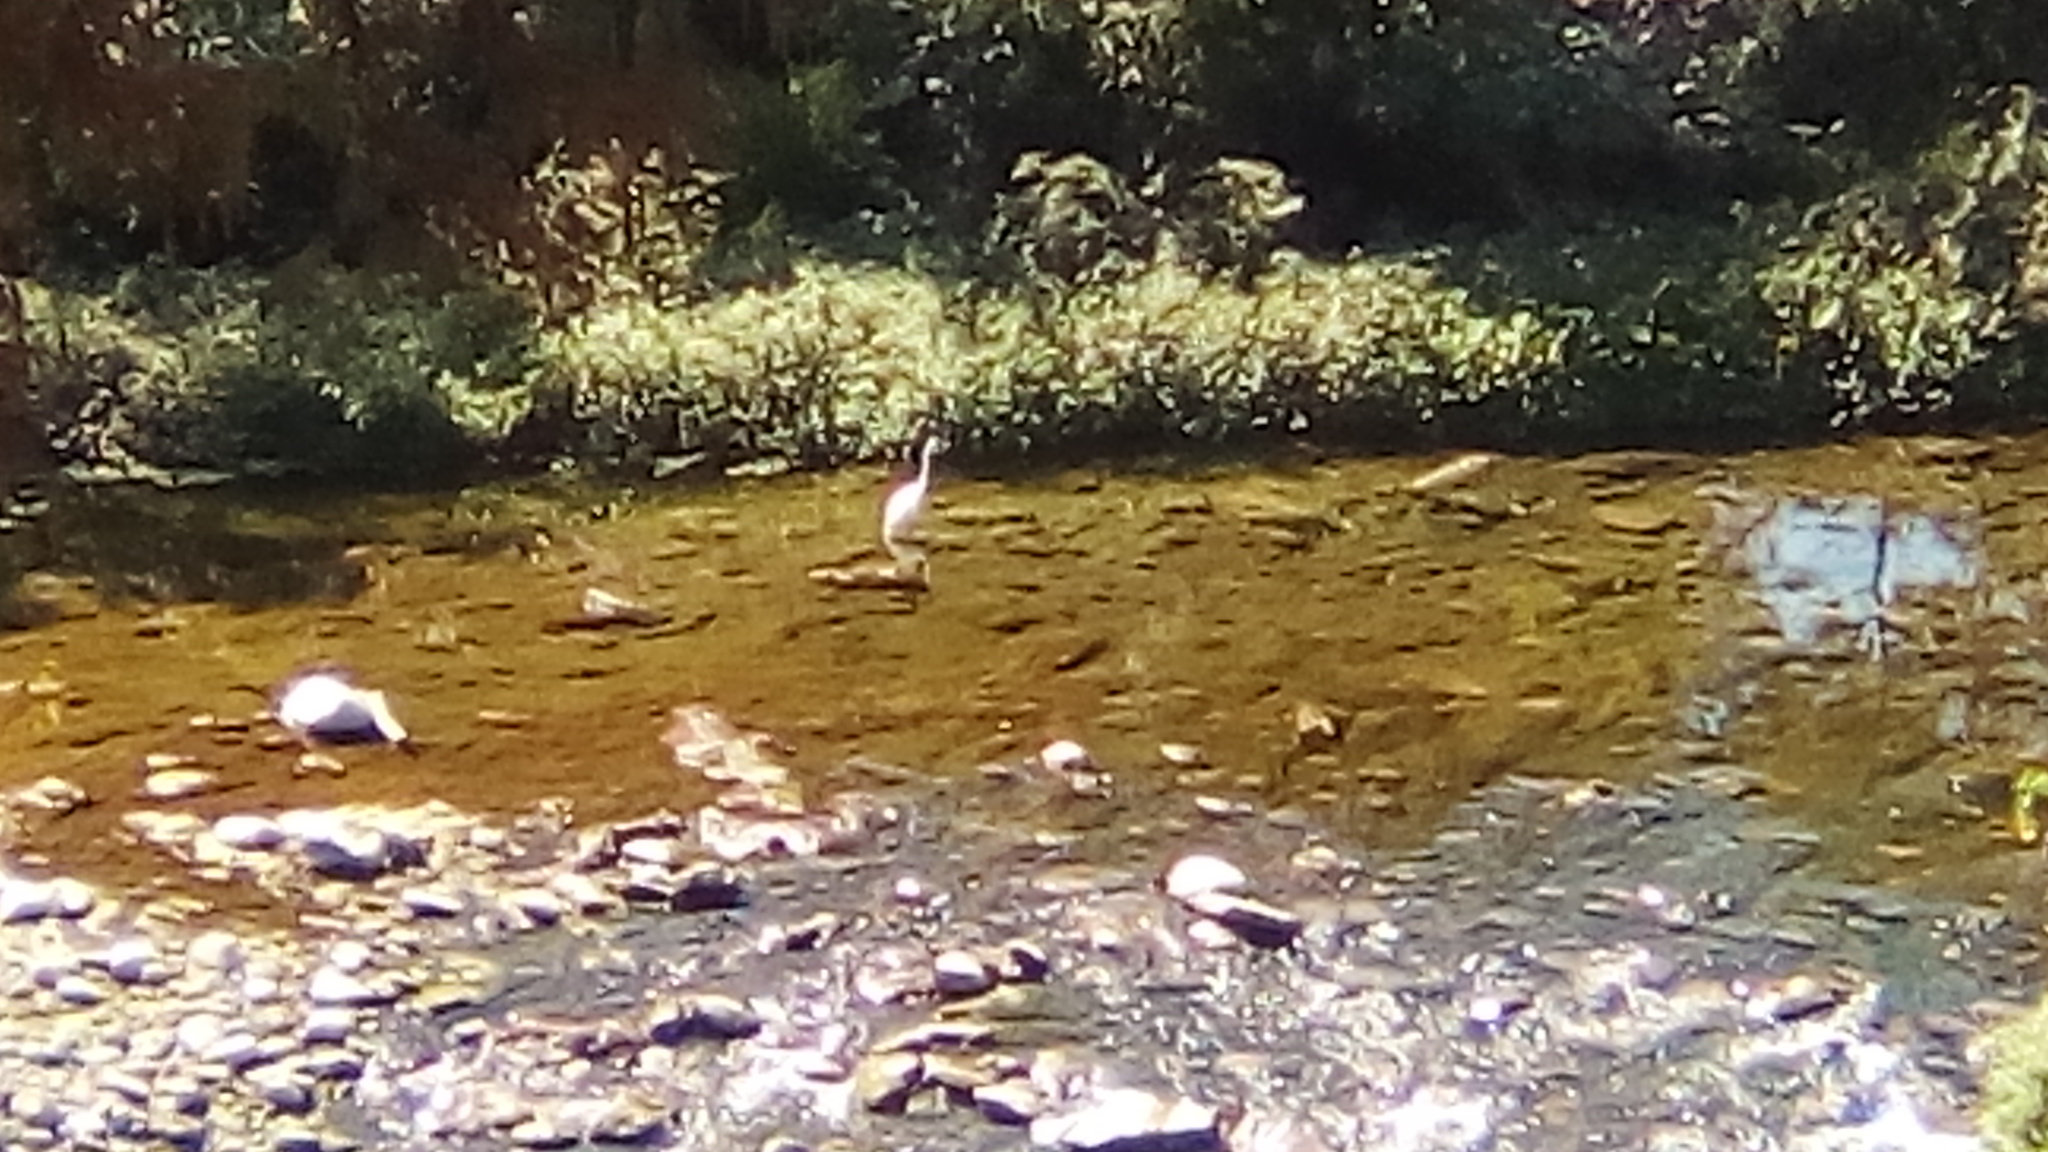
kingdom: Animalia
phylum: Chordata
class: Aves
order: Pelecaniformes
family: Ardeidae
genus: Ardea
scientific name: Ardea alba
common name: Great egret
